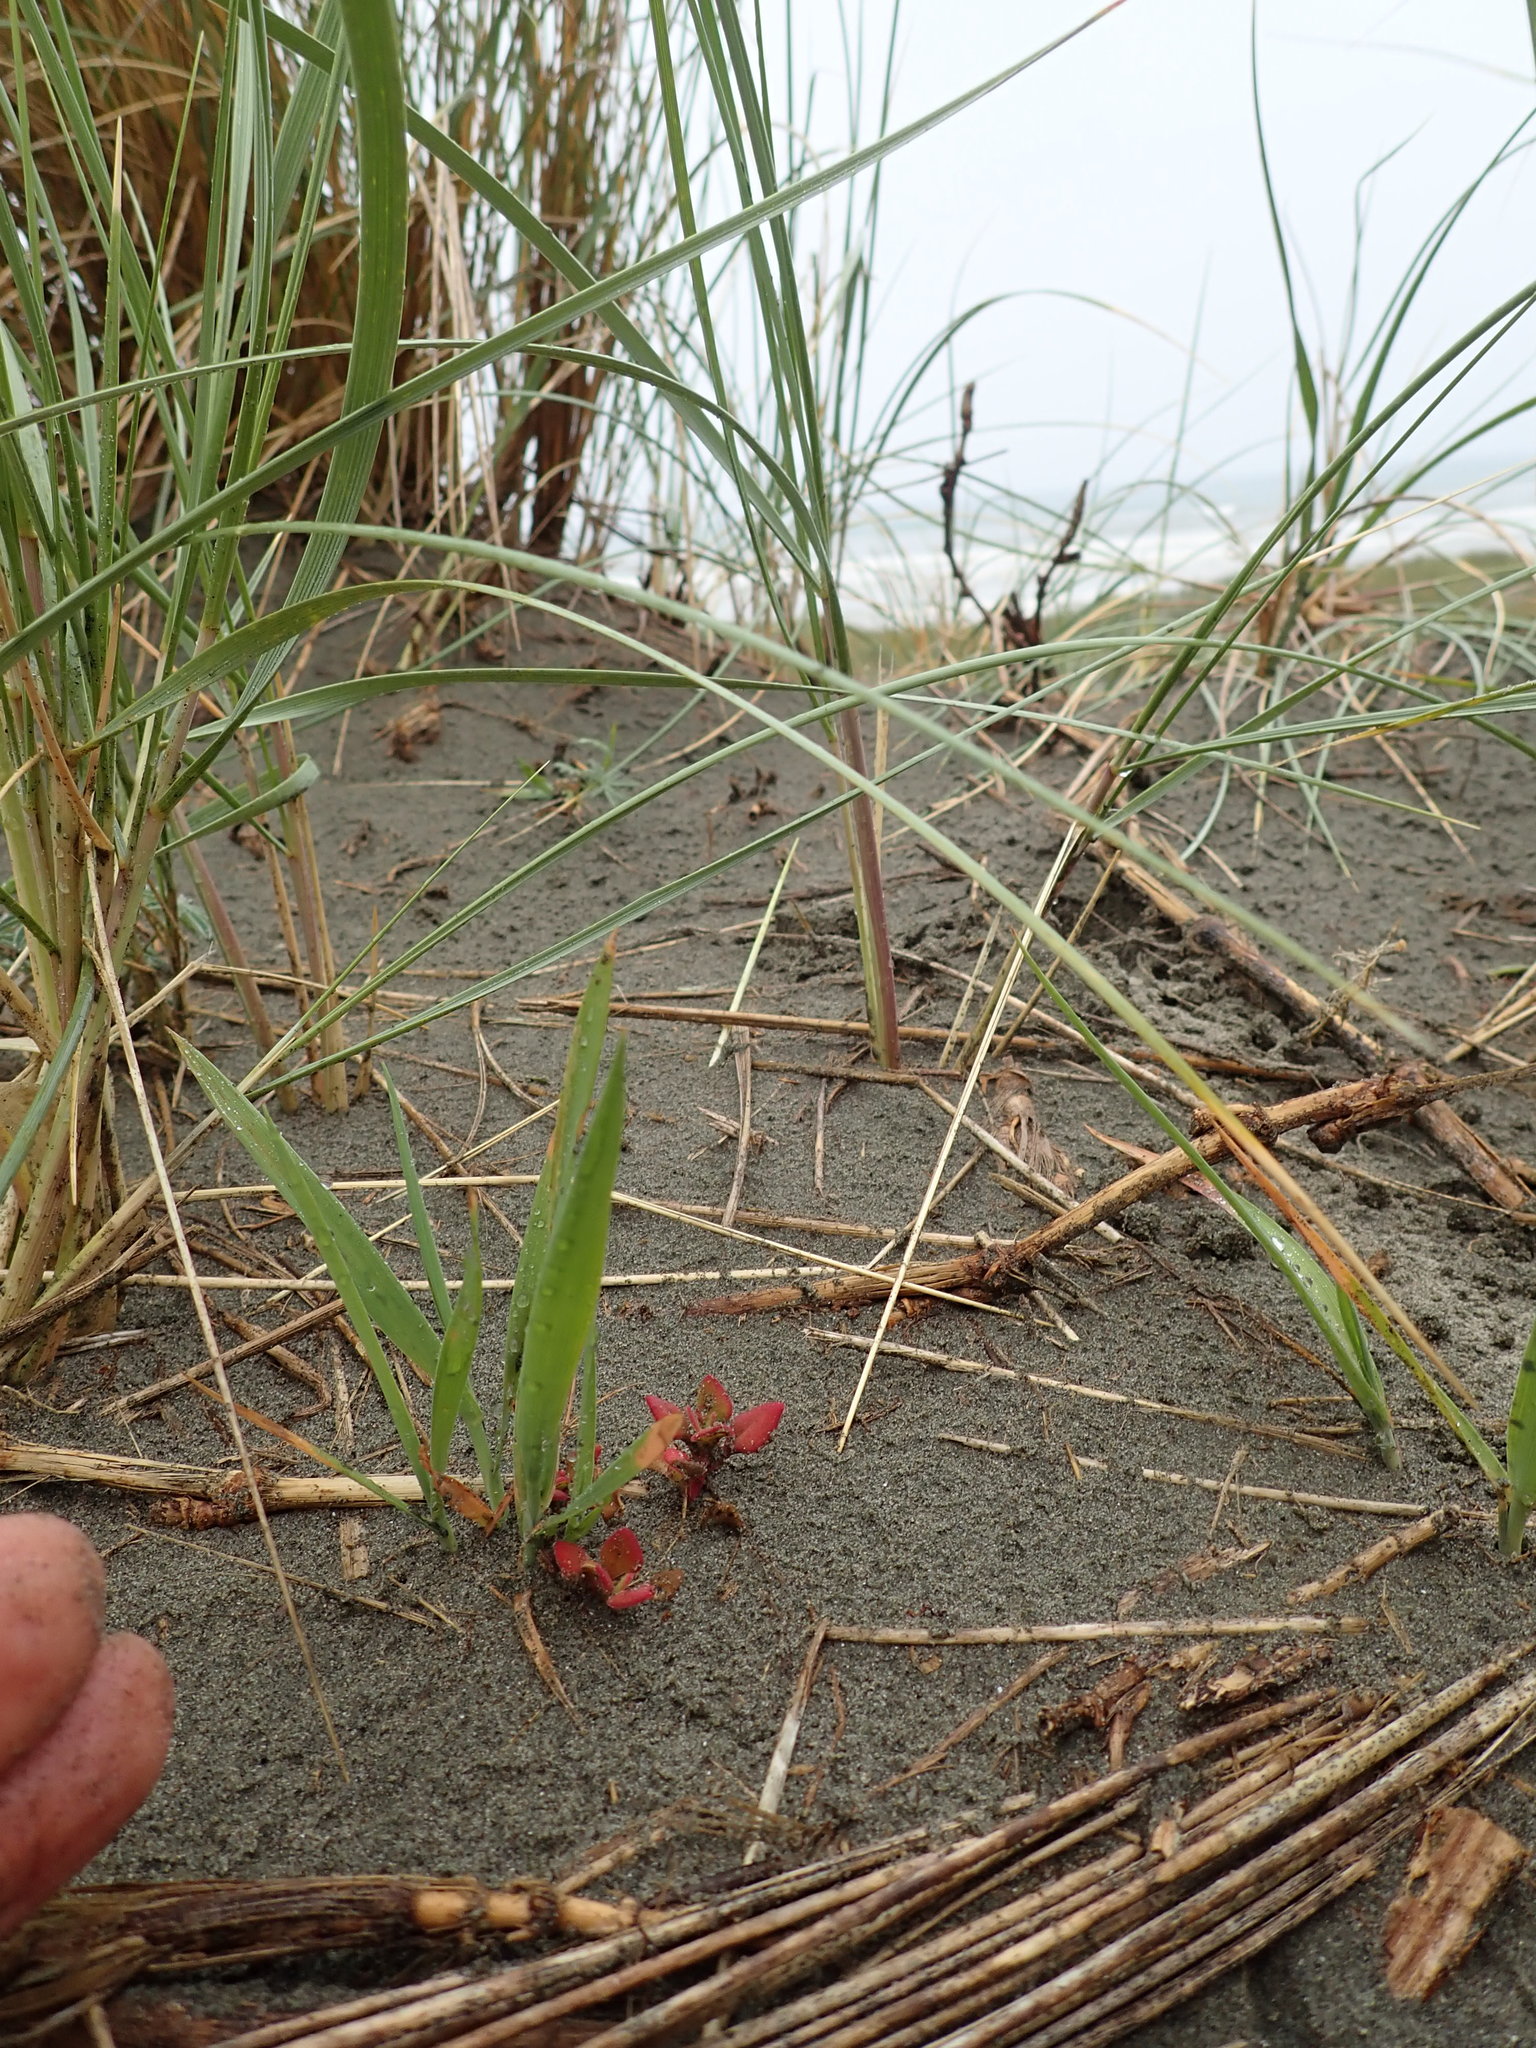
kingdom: Plantae
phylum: Tracheophyta
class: Magnoliopsida
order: Caryophyllales
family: Aizoaceae
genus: Tetragonia
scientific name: Tetragonia implexicoma
